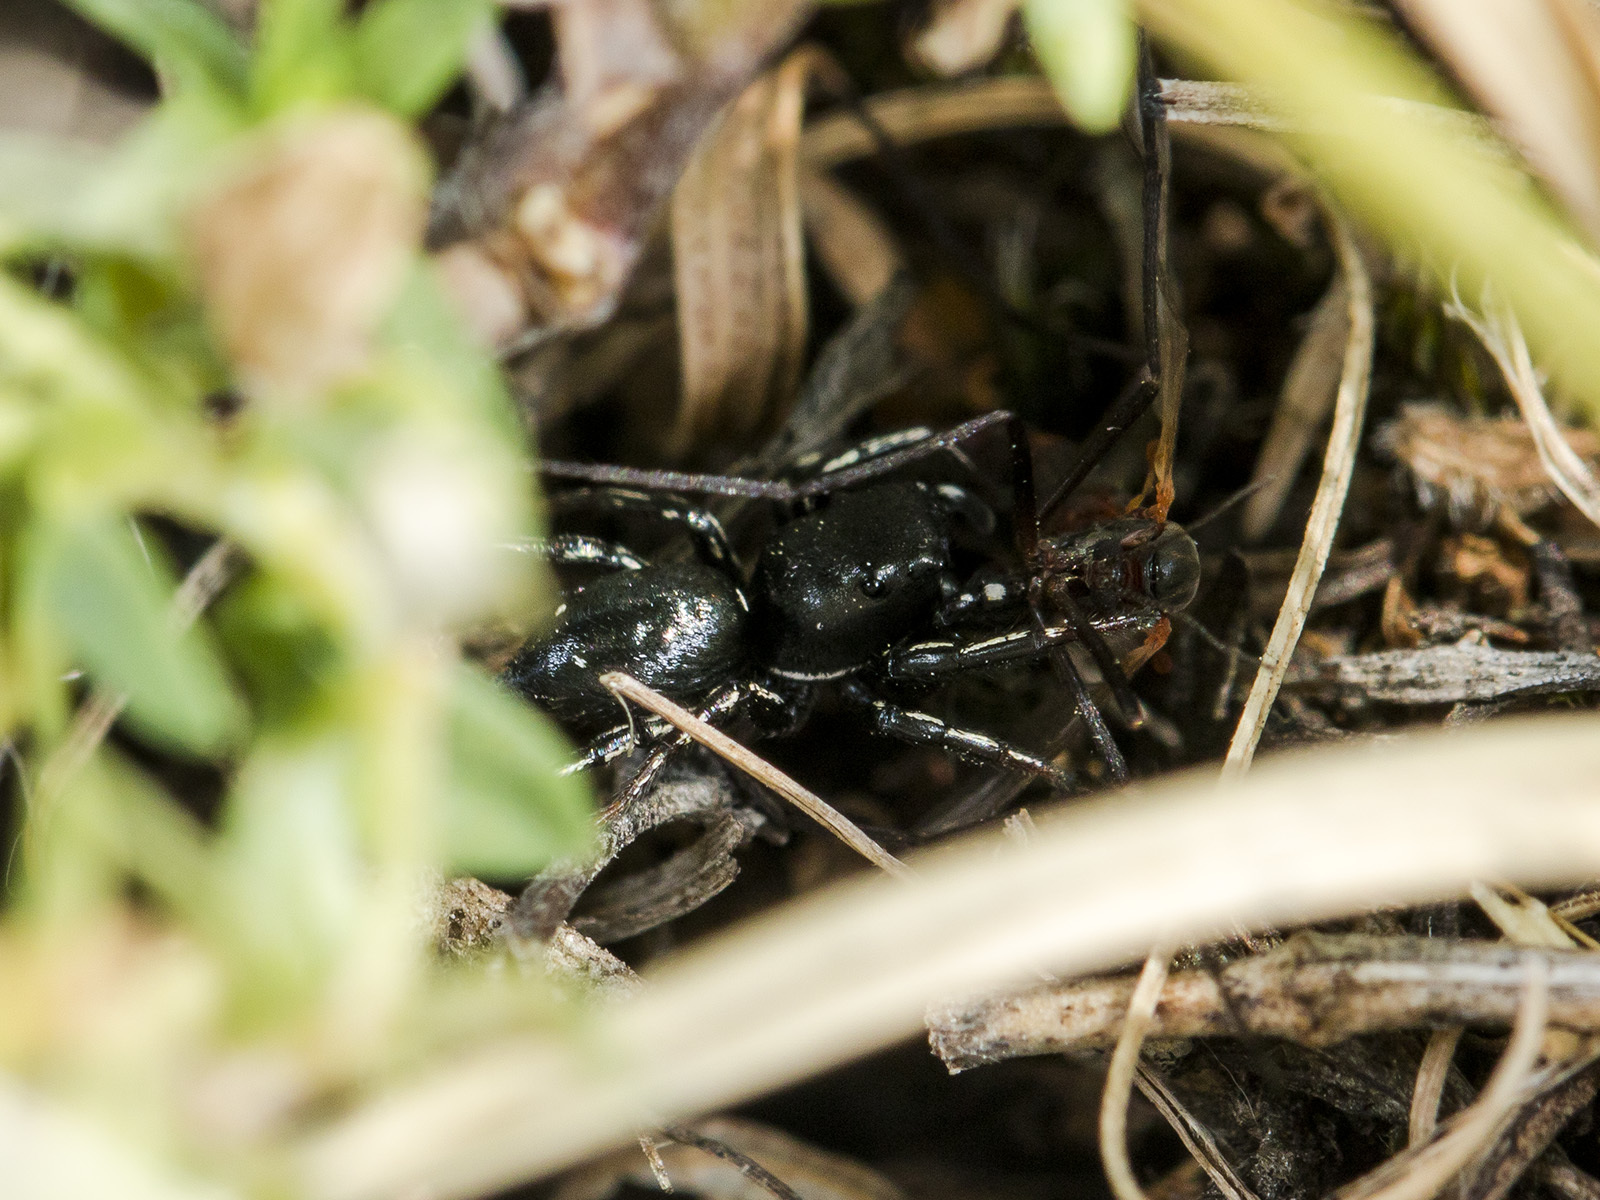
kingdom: Animalia
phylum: Arthropoda
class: Arachnida
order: Araneae
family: Salticidae
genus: Heliophanus
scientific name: Heliophanus chovdensis
